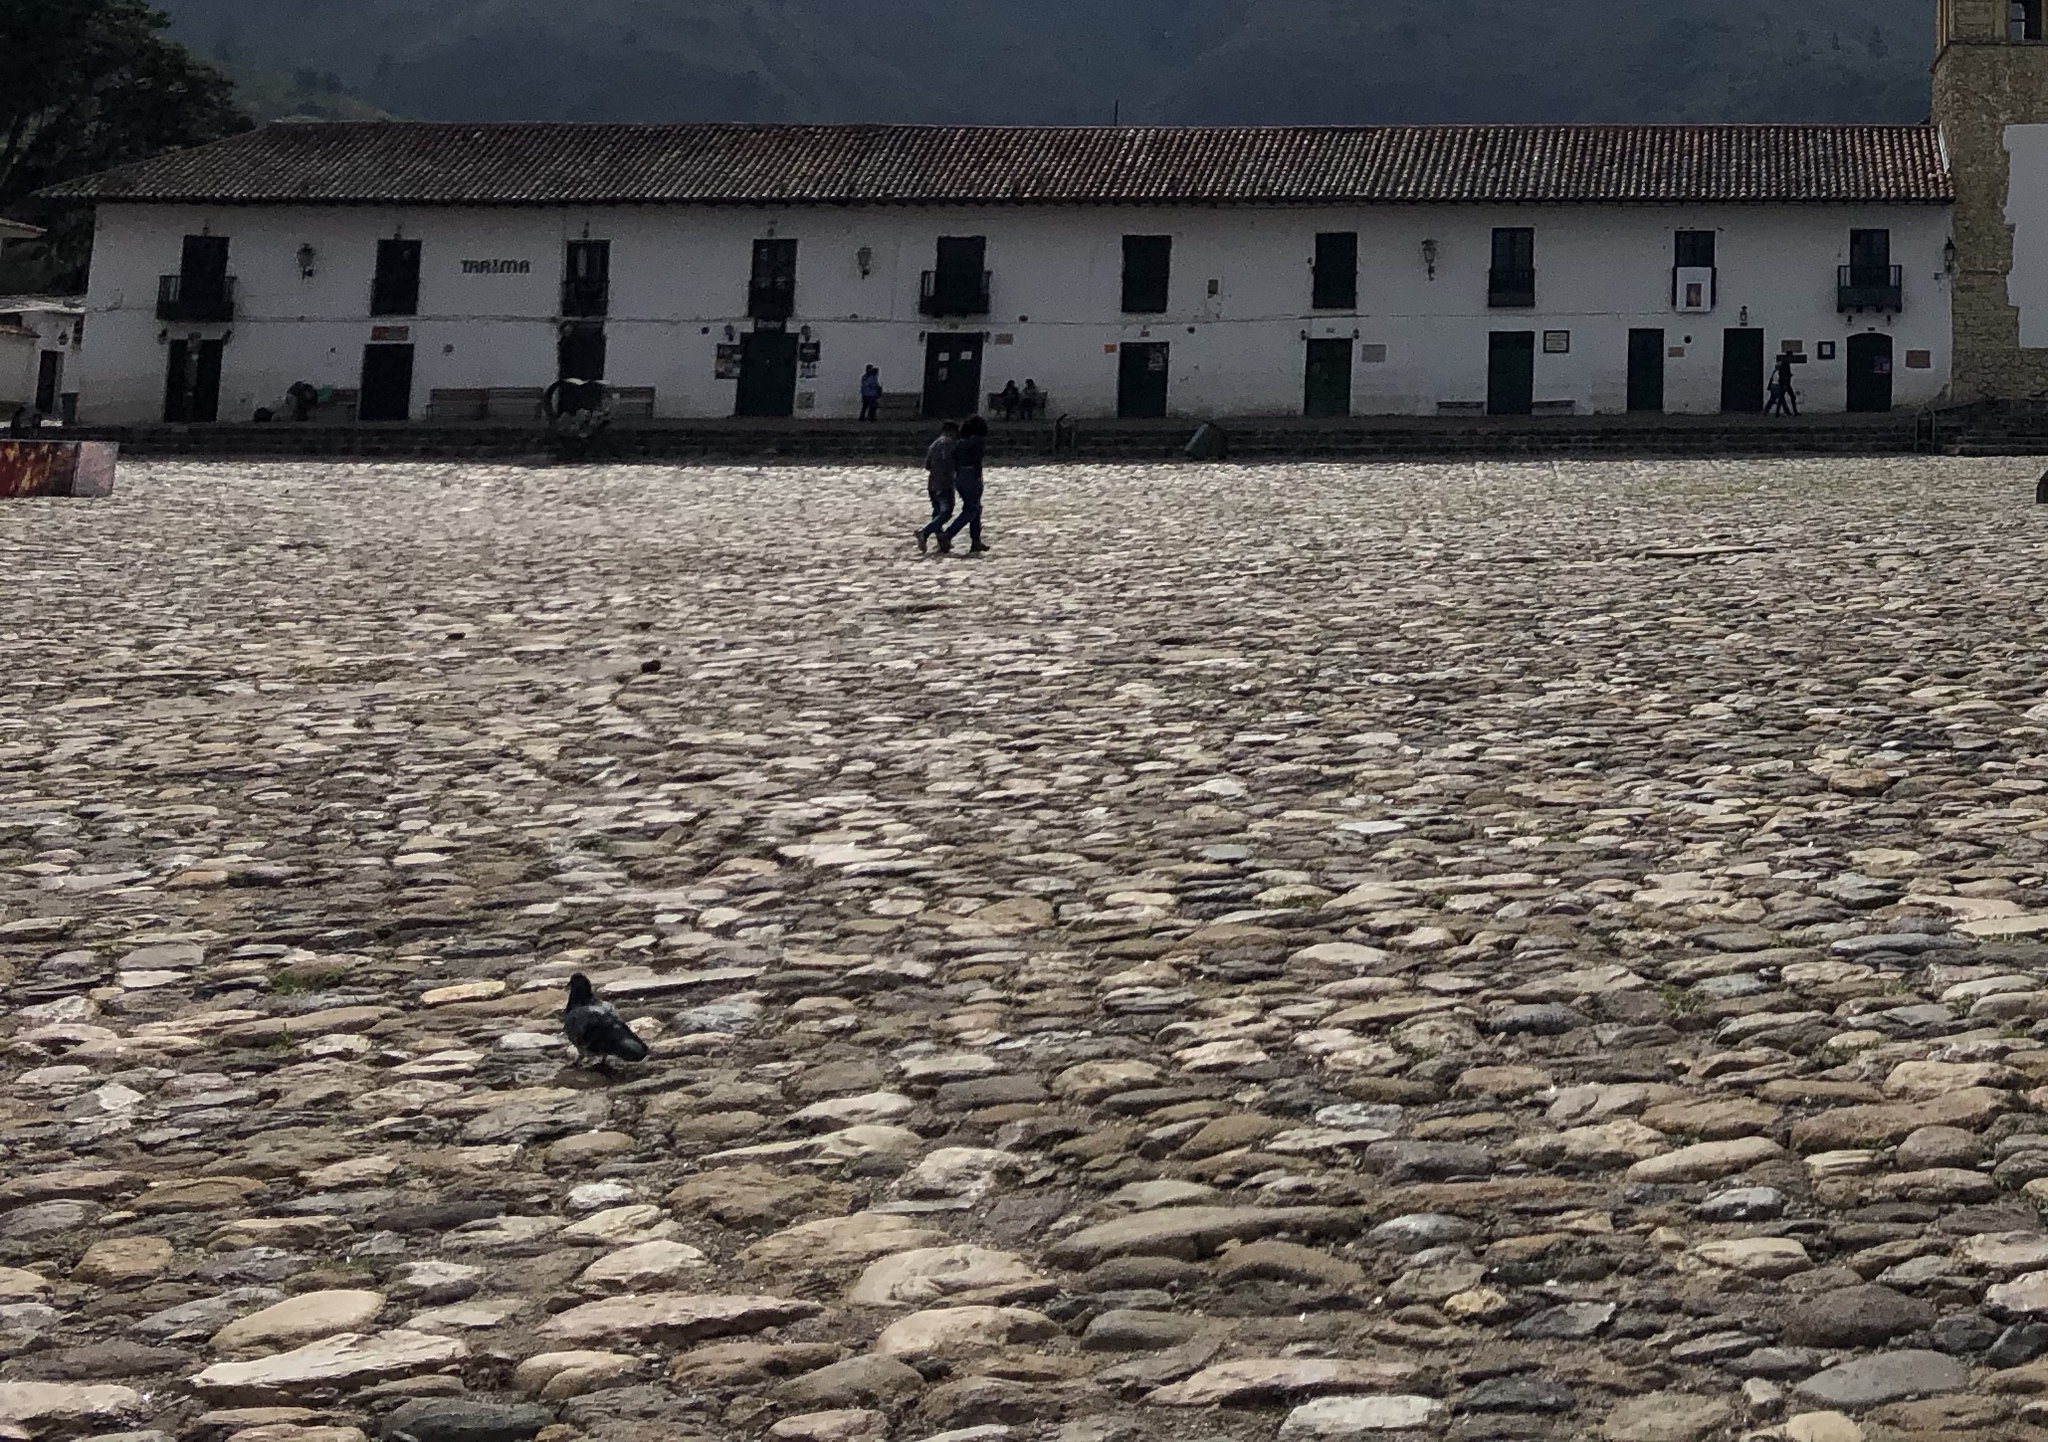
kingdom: Animalia
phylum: Chordata
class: Aves
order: Columbiformes
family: Columbidae
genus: Columba
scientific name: Columba livia
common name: Rock pigeon
